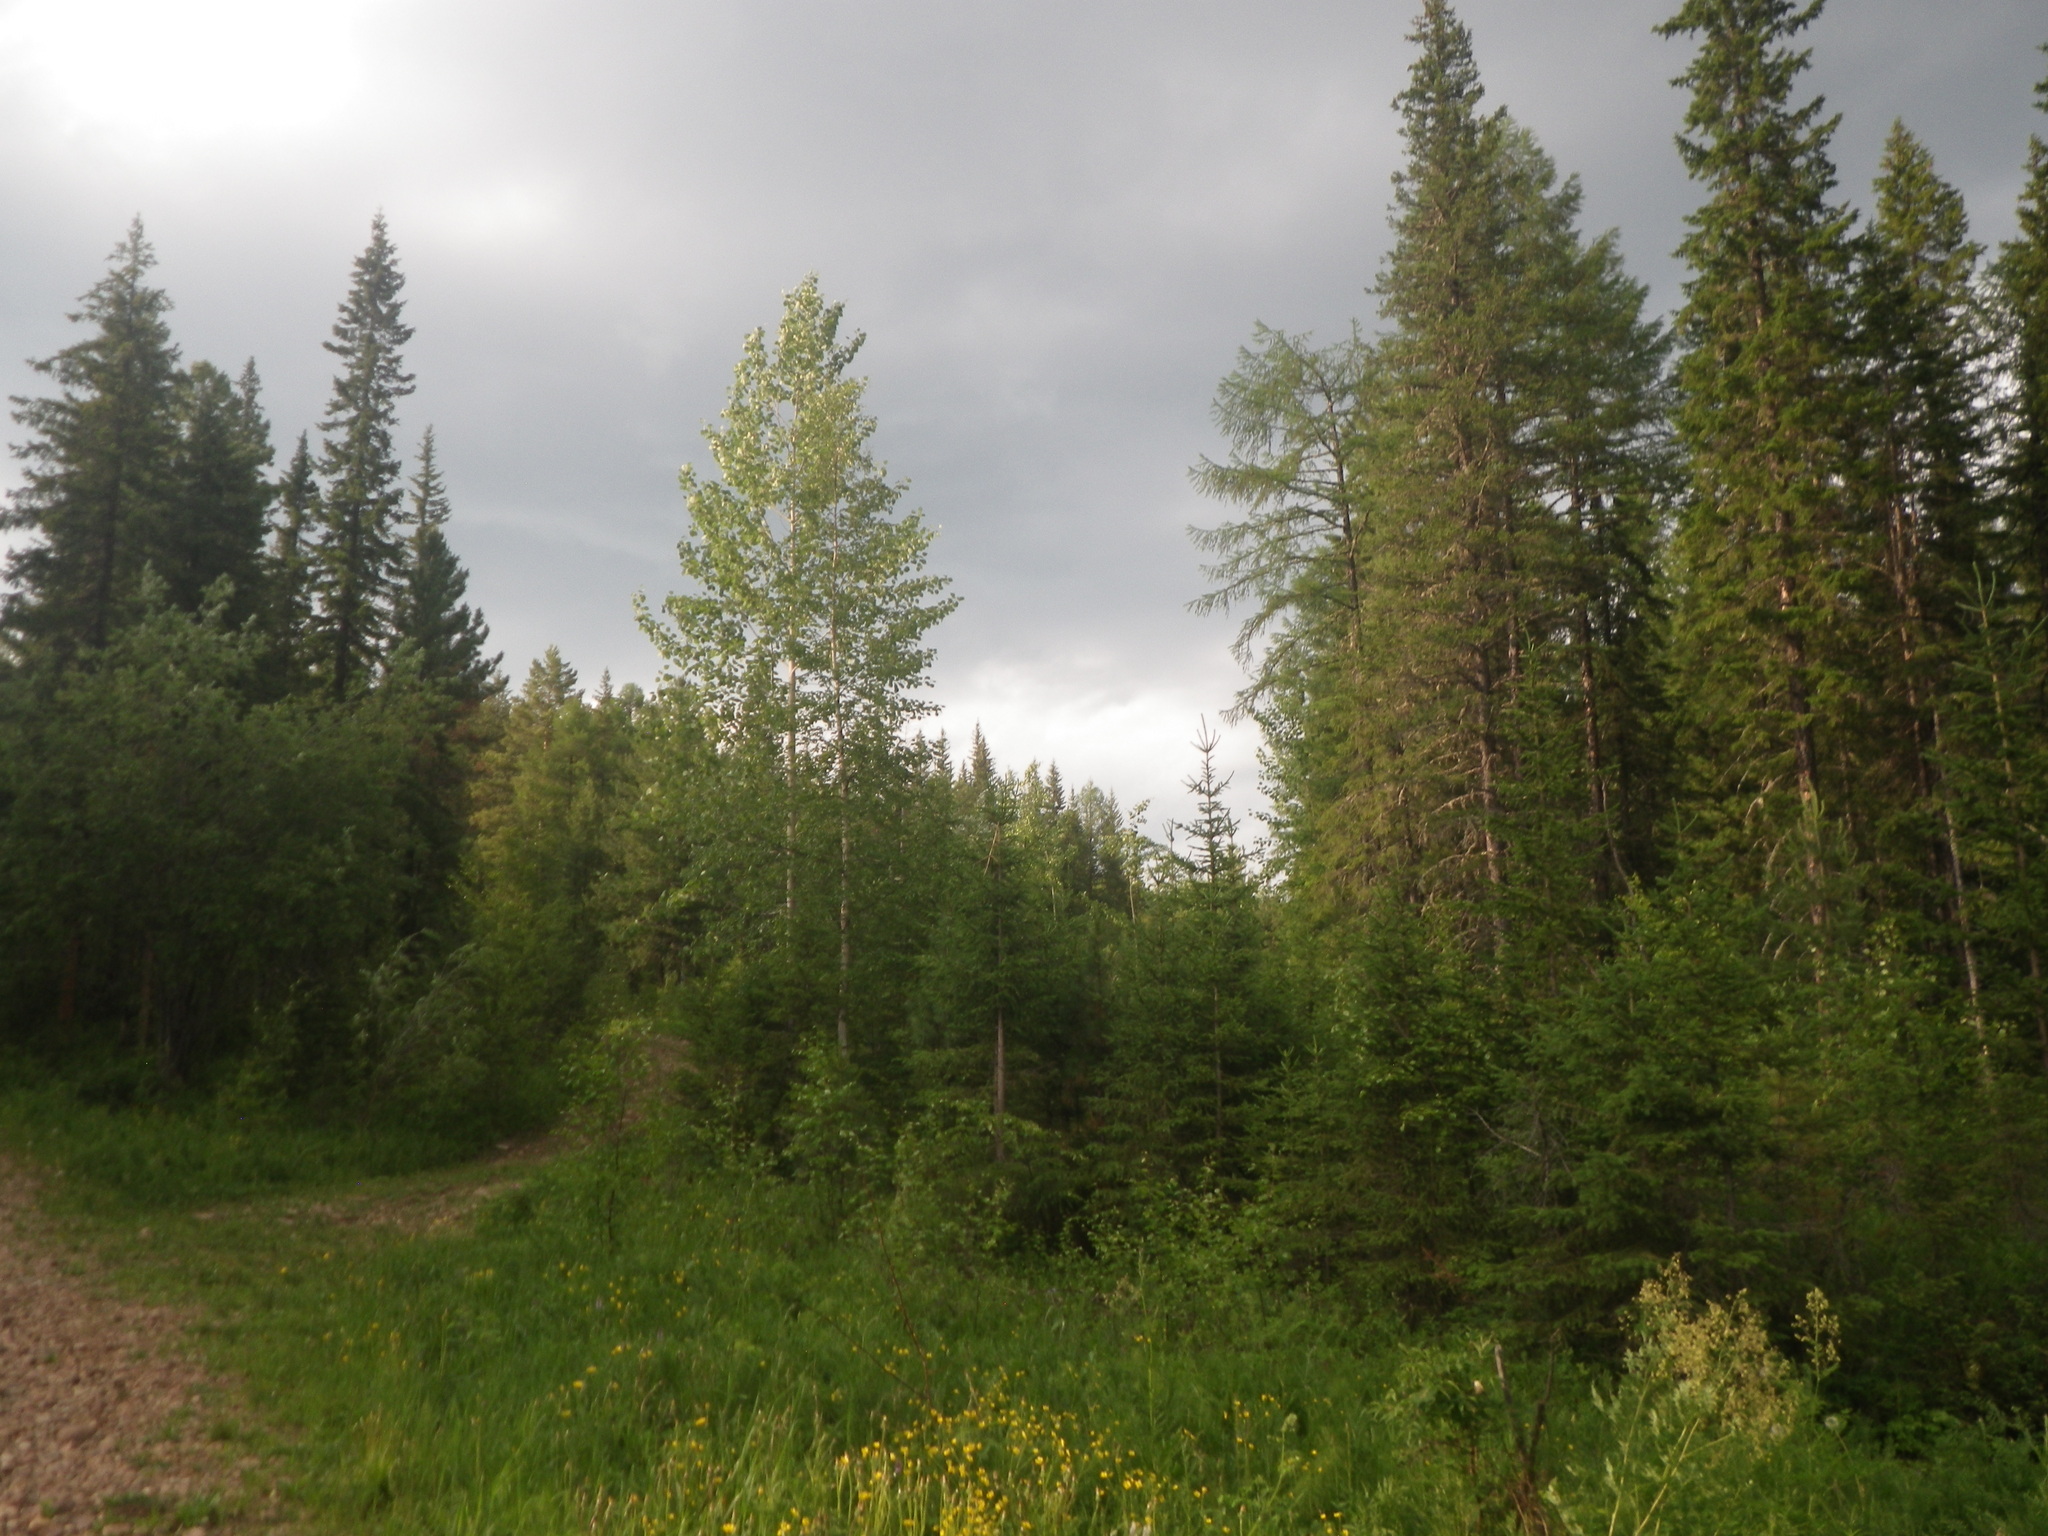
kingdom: Plantae
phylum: Tracheophyta
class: Pinopsida
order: Pinales
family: Pinaceae
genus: Picea
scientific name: Picea obovata
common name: Siberian spruce
